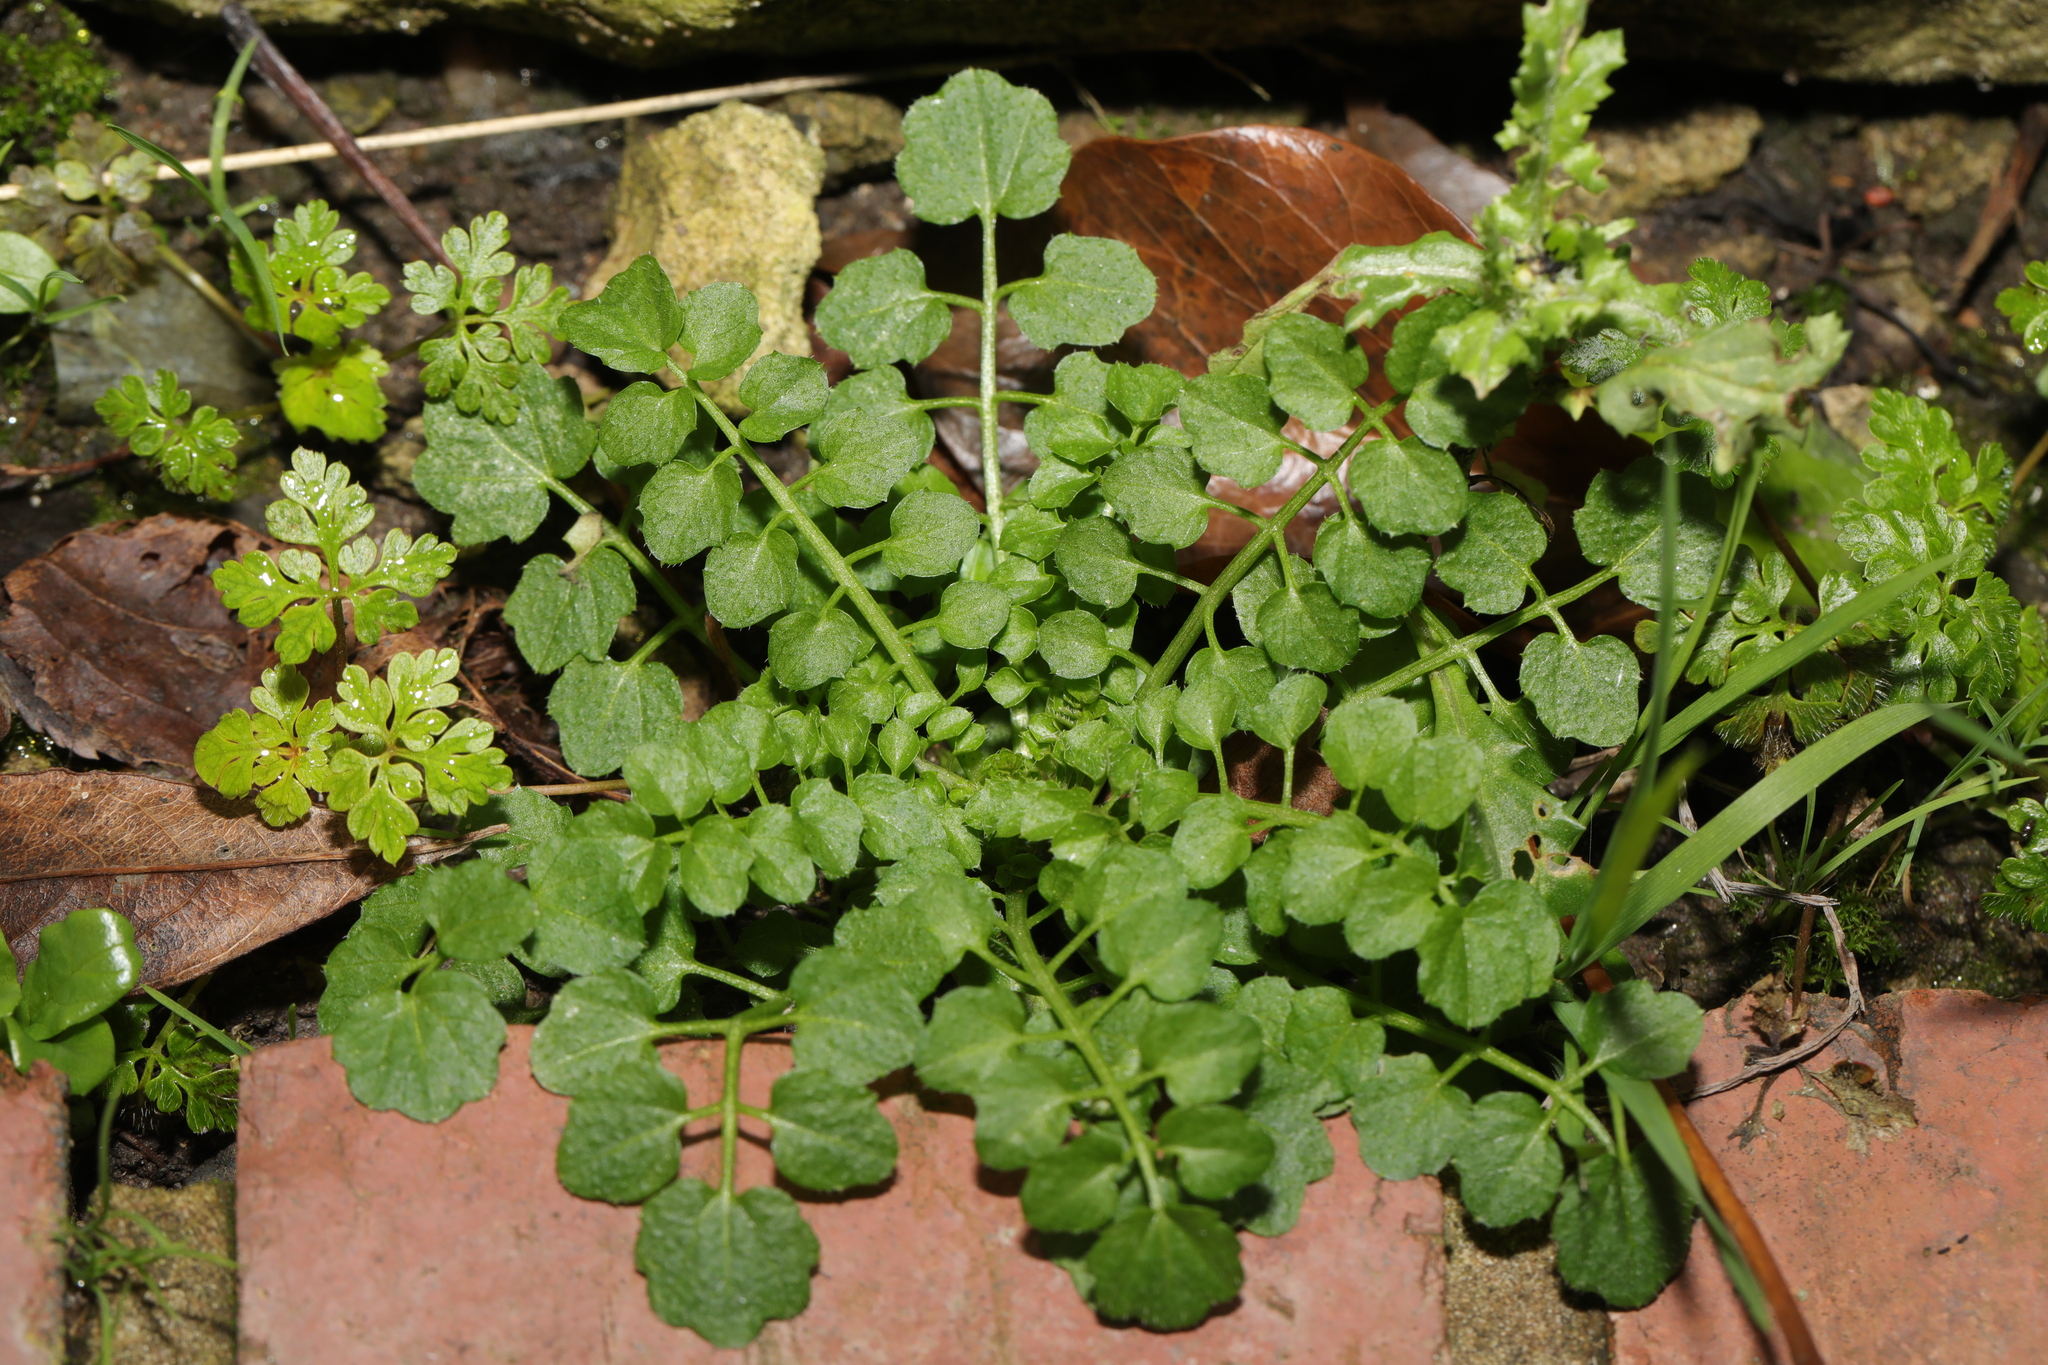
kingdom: Plantae
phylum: Tracheophyta
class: Magnoliopsida
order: Brassicales
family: Brassicaceae
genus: Cardamine
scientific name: Cardamine flexuosa
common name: Woodland bittercress
